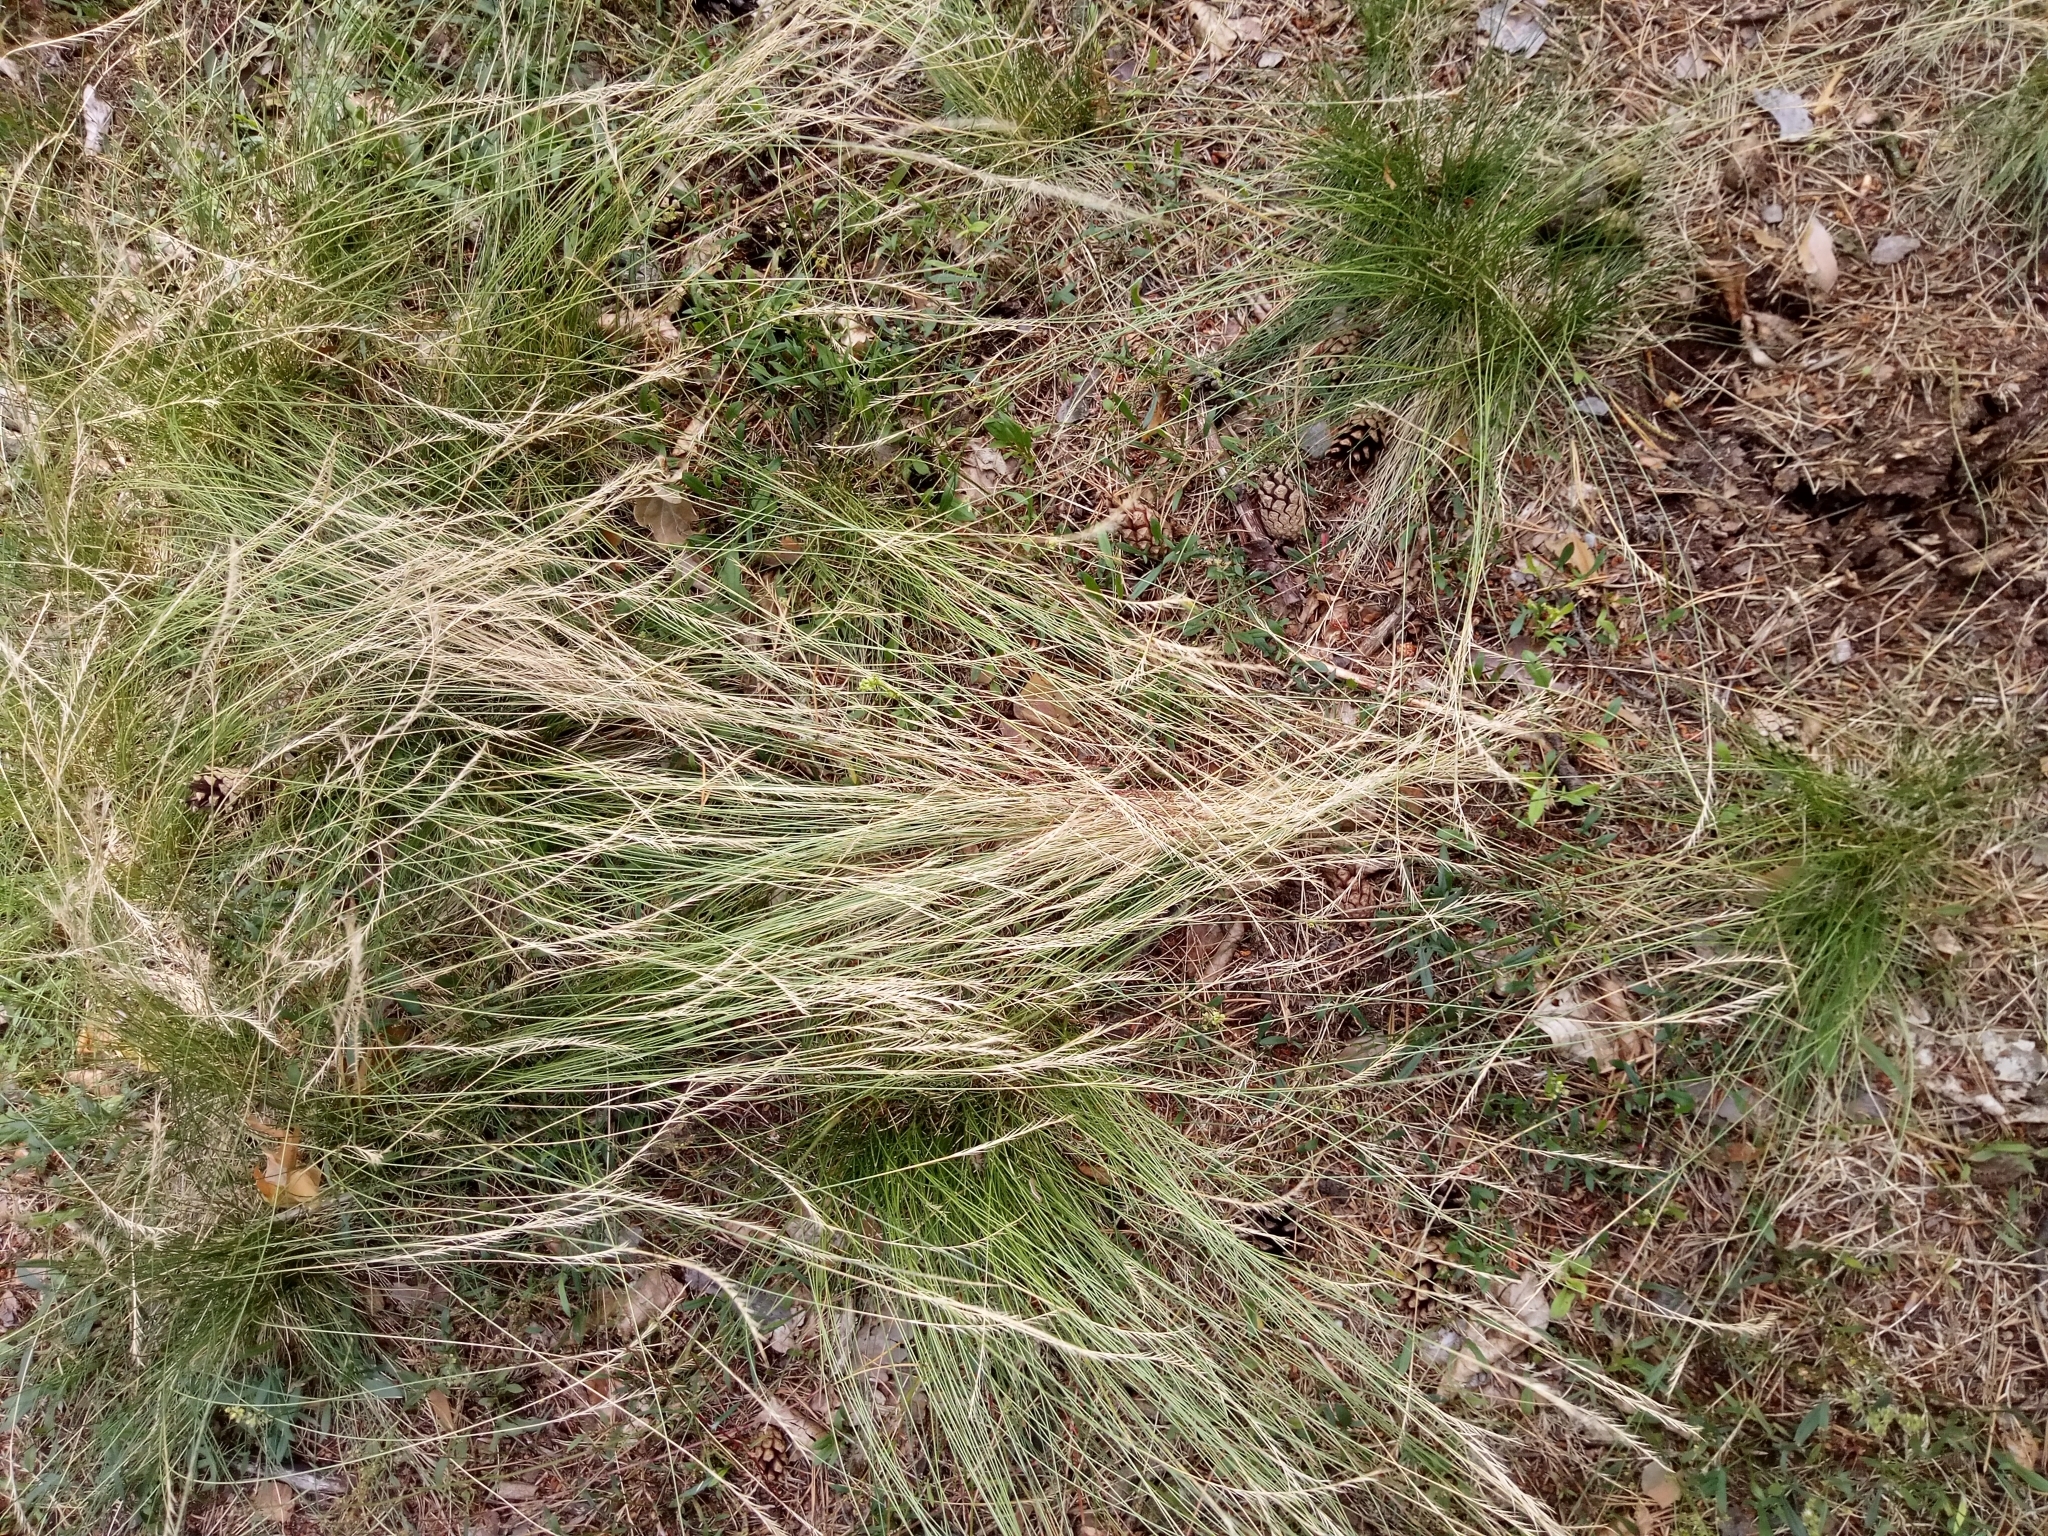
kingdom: Plantae
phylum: Tracheophyta
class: Liliopsida
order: Poales
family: Poaceae
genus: Nardus
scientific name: Nardus stricta
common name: Mat-grass
